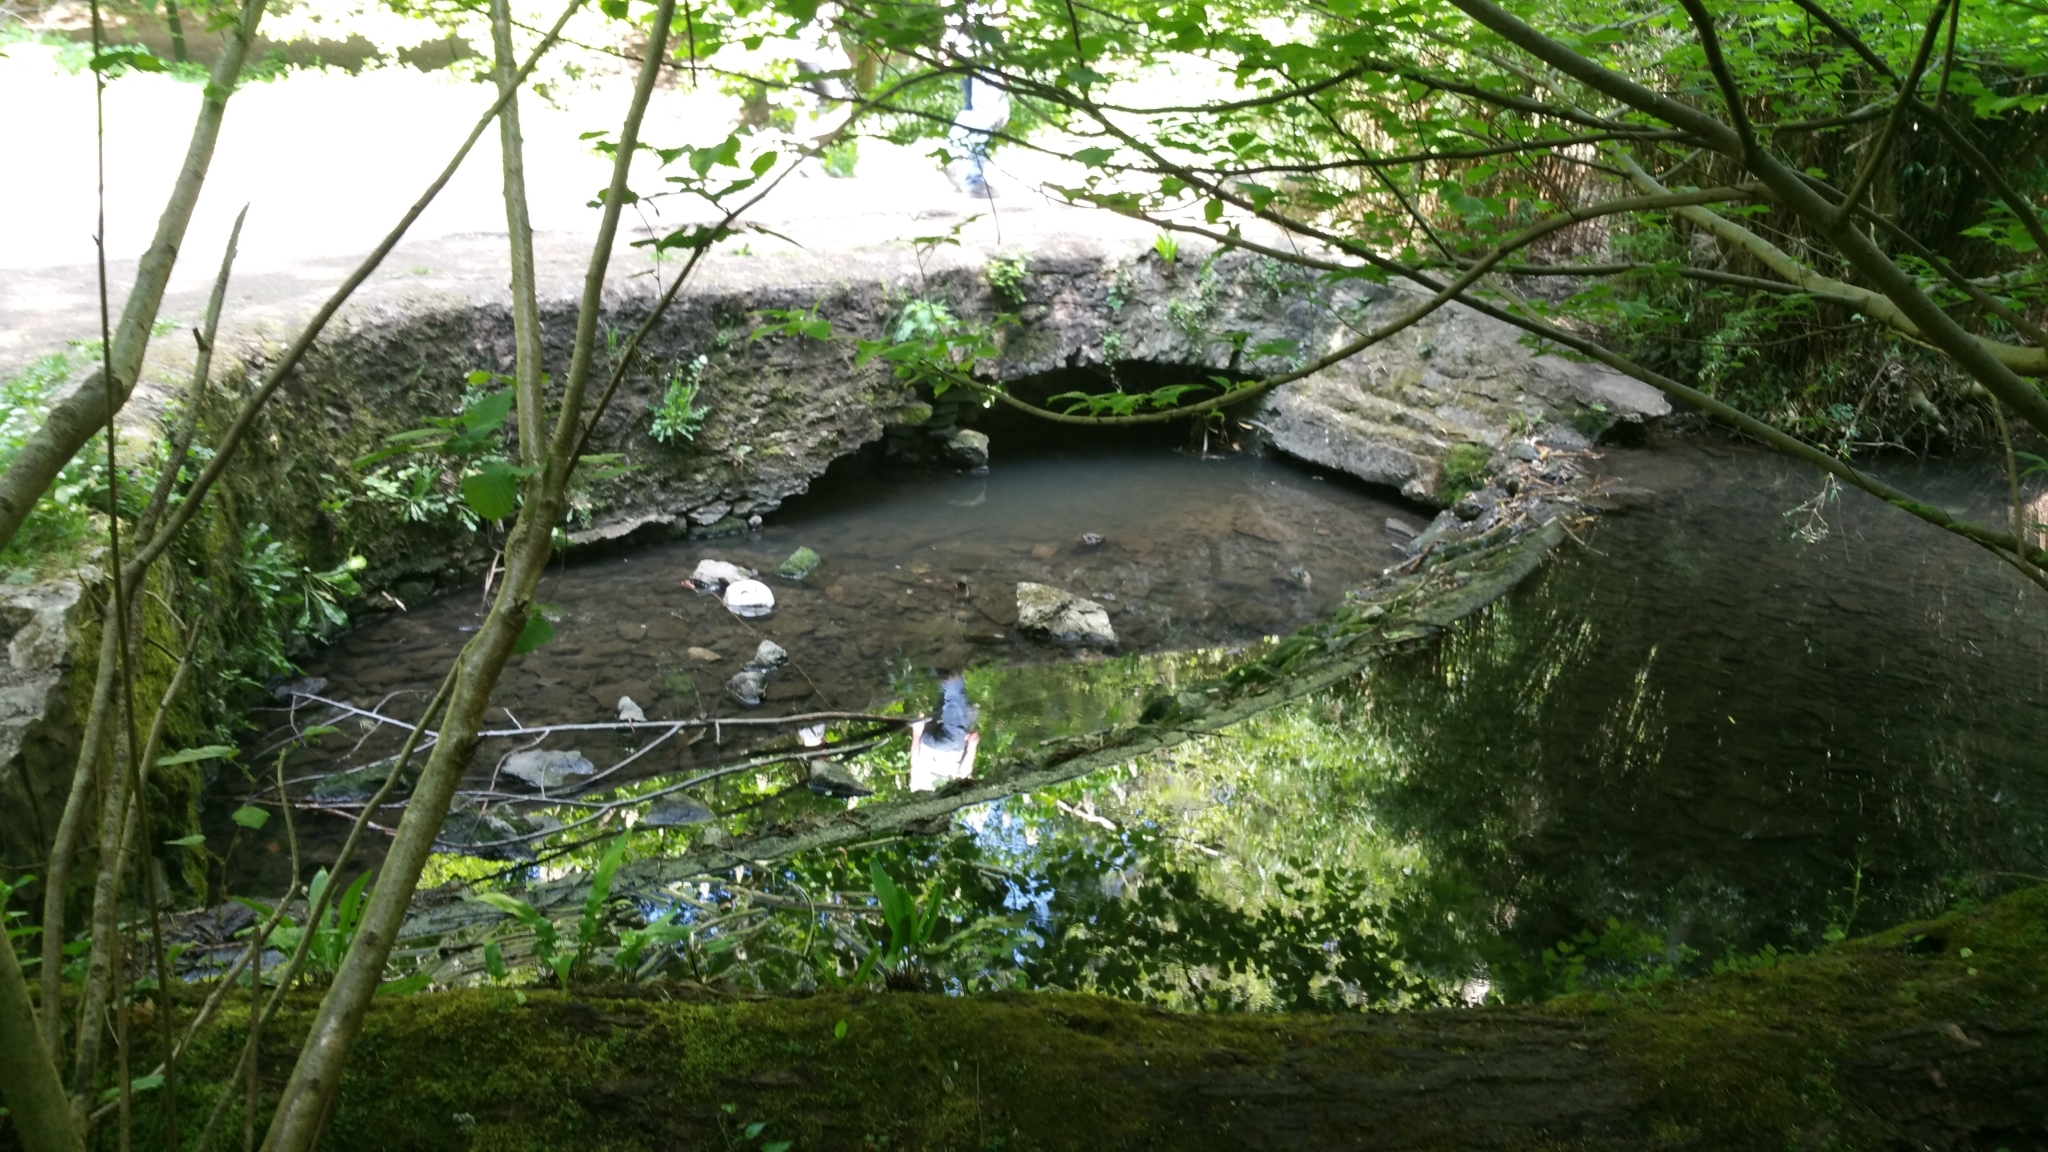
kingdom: Animalia
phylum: Chordata
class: Amphibia
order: Anura
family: Ranidae
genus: Rana
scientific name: Rana temporaria
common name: Common frog
